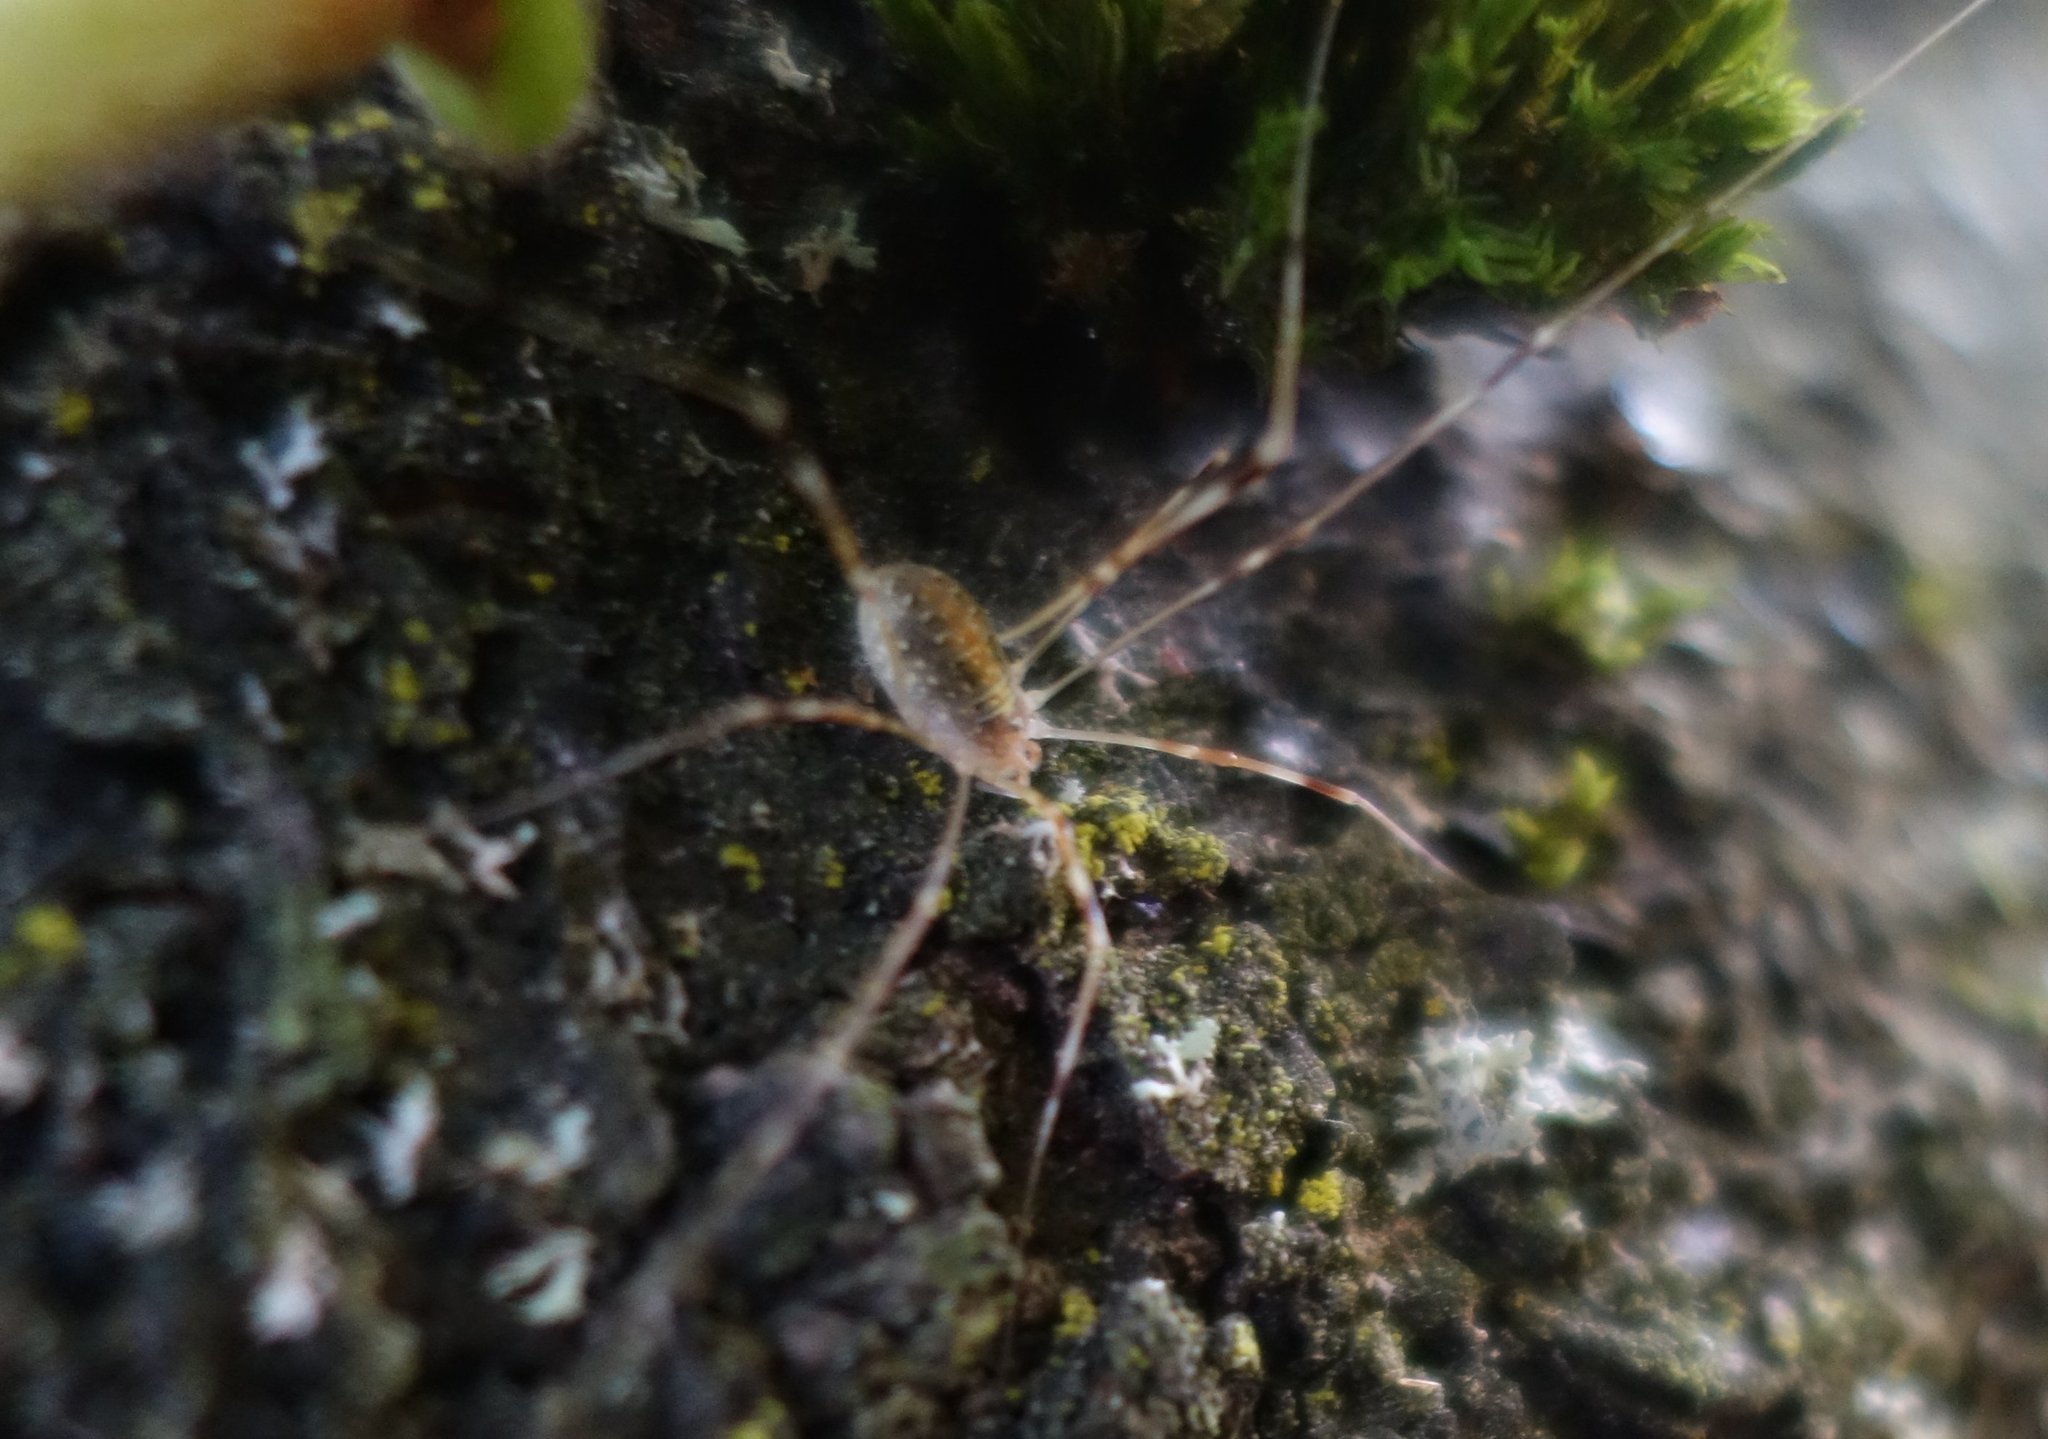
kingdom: Animalia
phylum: Arthropoda
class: Arachnida
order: Opiliones
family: Phalangiidae
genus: Opilio
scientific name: Opilio canestrinii
